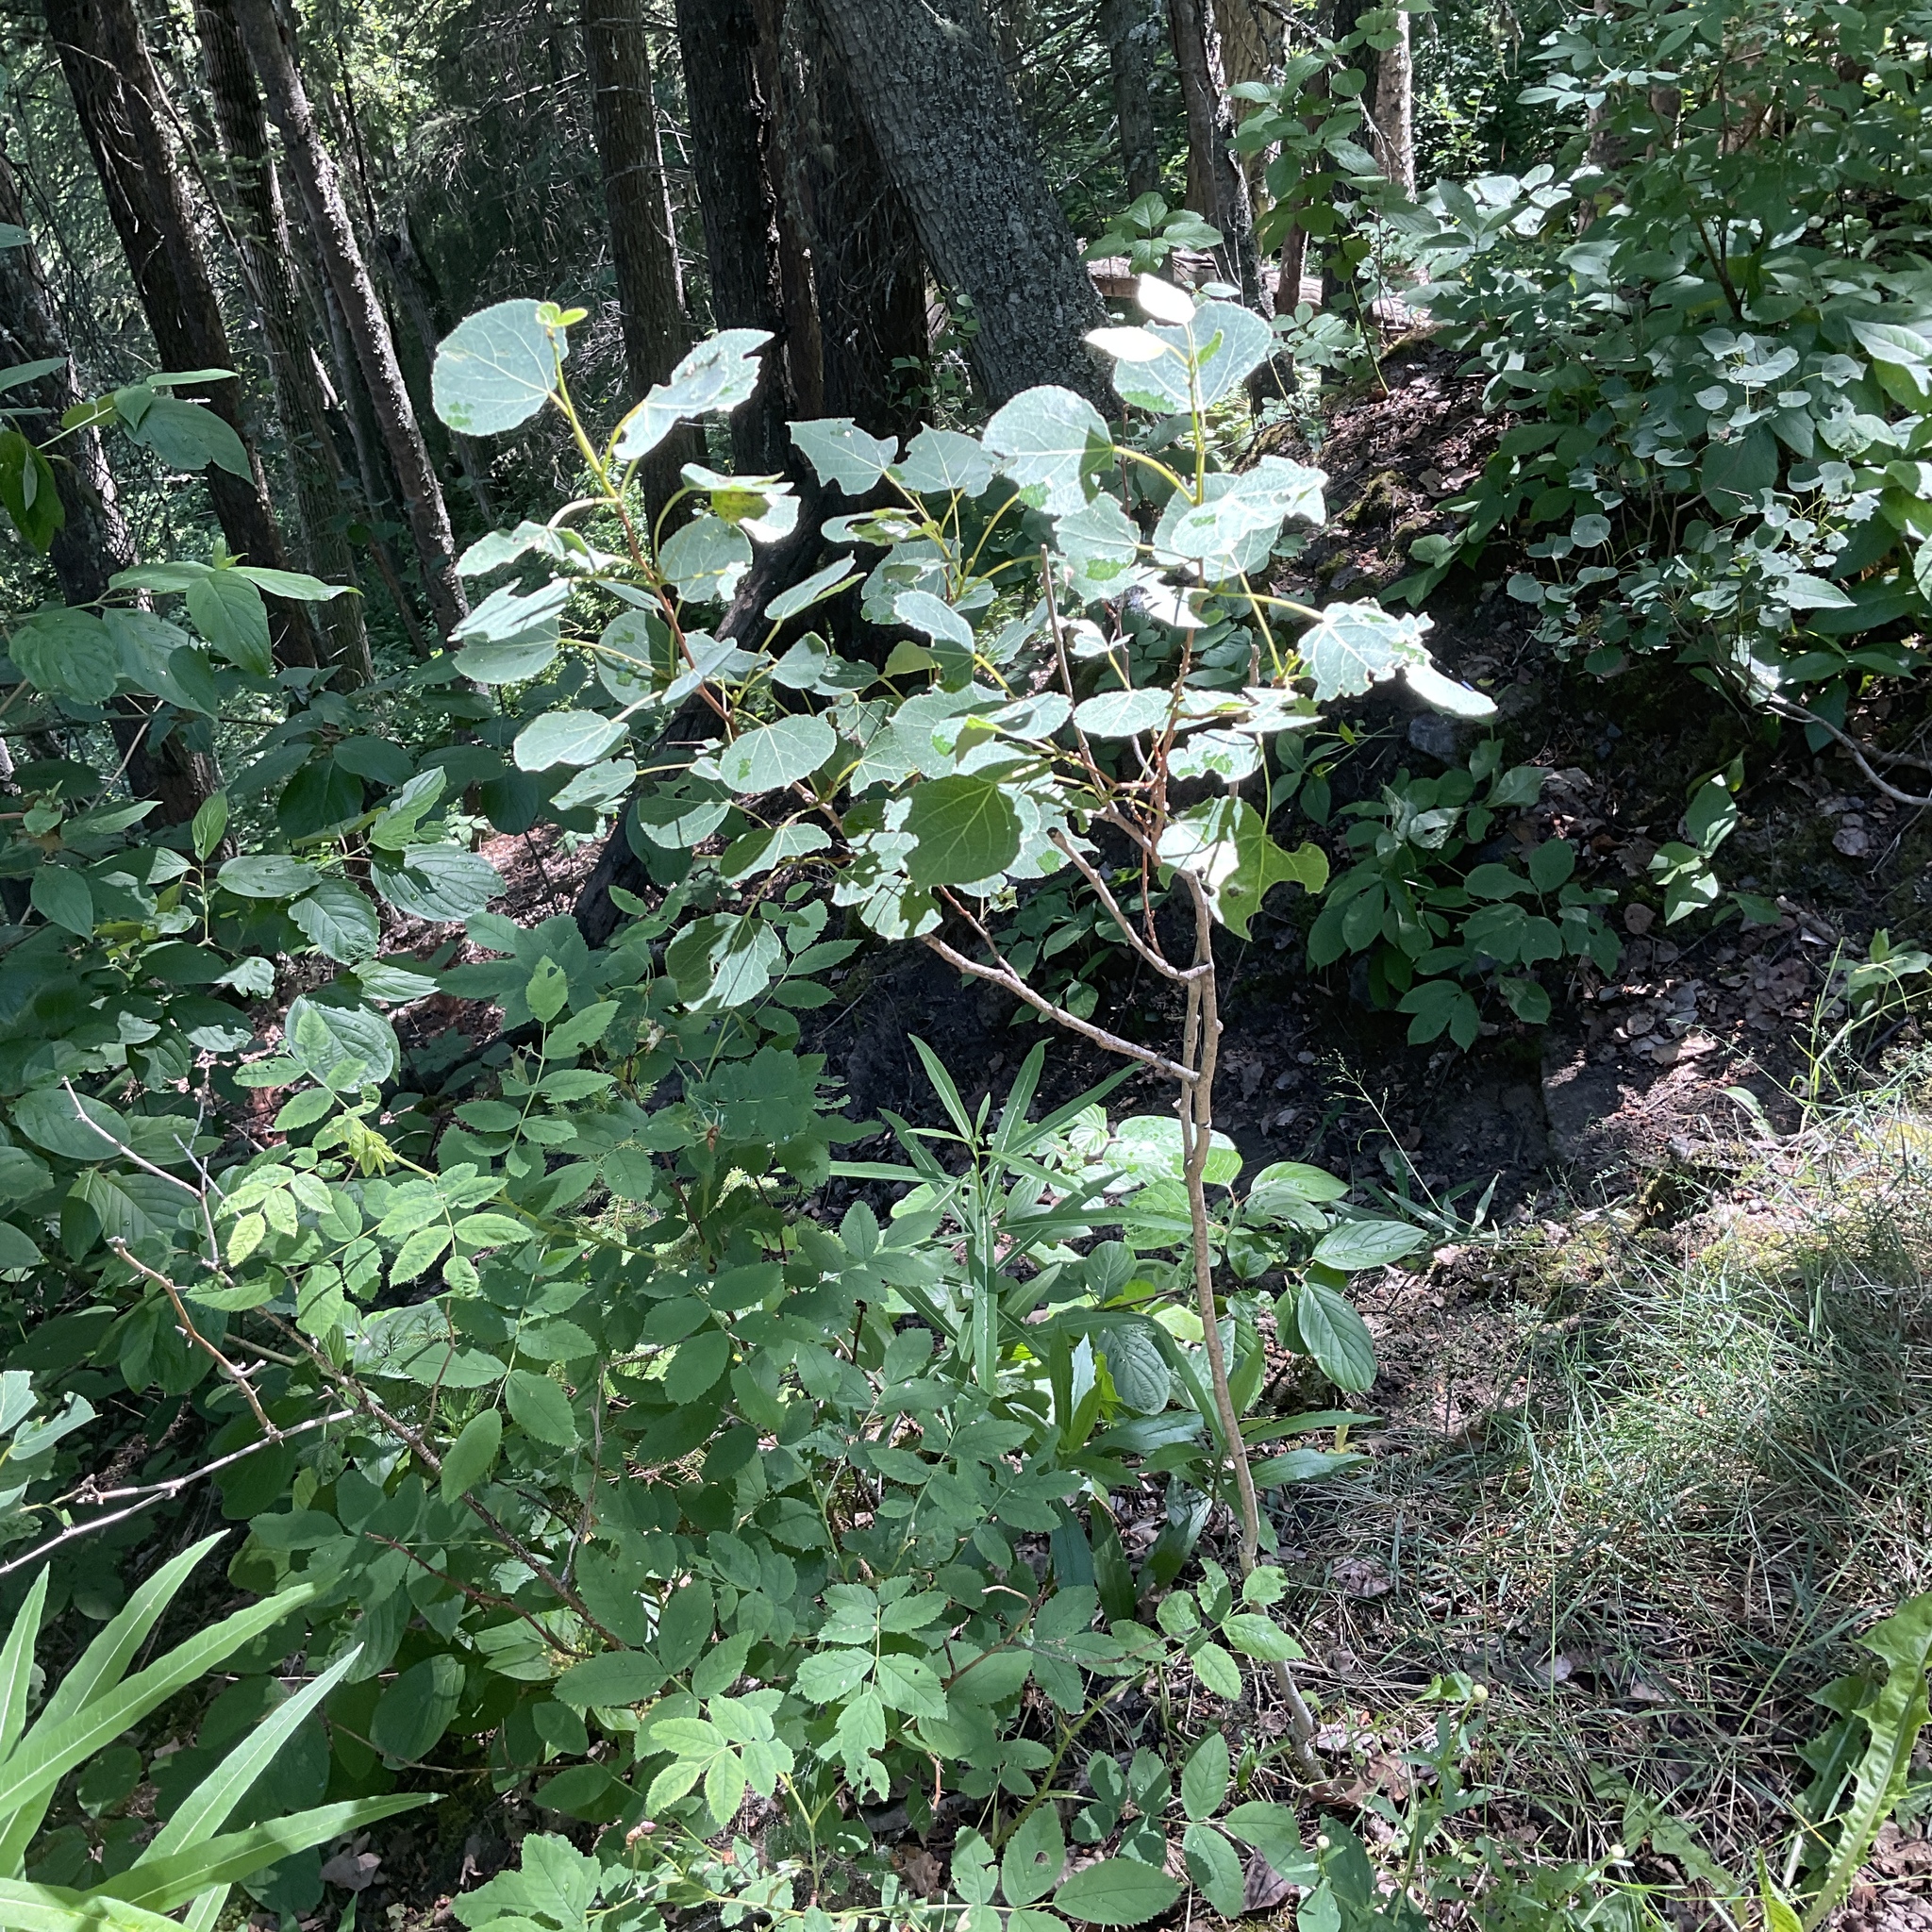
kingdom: Plantae
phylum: Tracheophyta
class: Magnoliopsida
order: Malpighiales
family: Salicaceae
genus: Populus
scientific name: Populus tremuloides
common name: Quaking aspen
